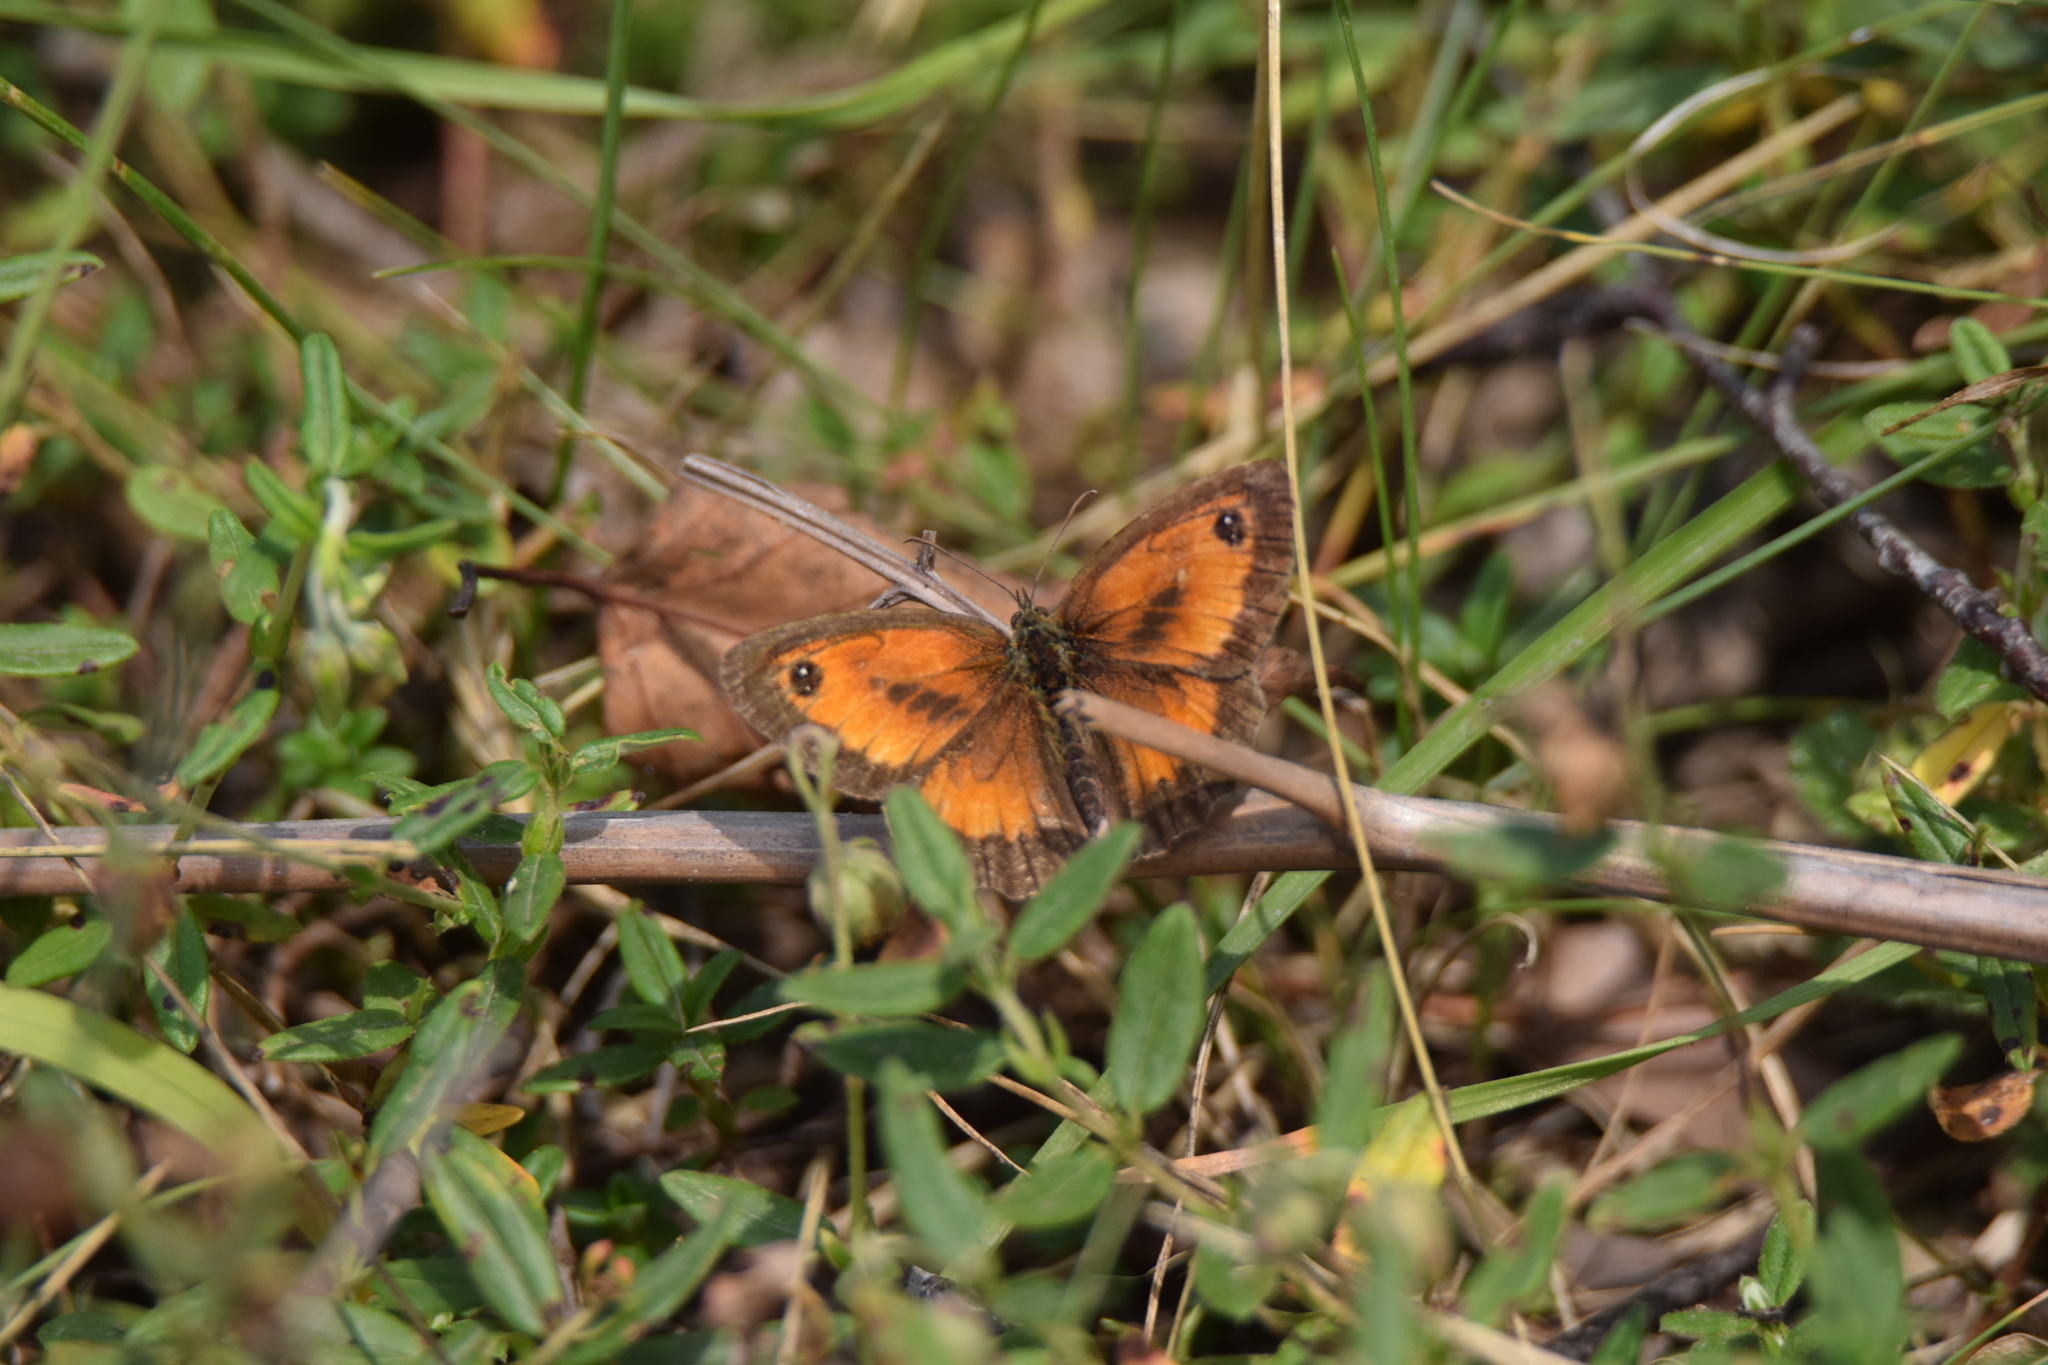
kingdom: Animalia
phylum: Arthropoda
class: Insecta
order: Lepidoptera
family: Nymphalidae
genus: Pyronia
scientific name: Pyronia tithonus
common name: Gatekeeper
